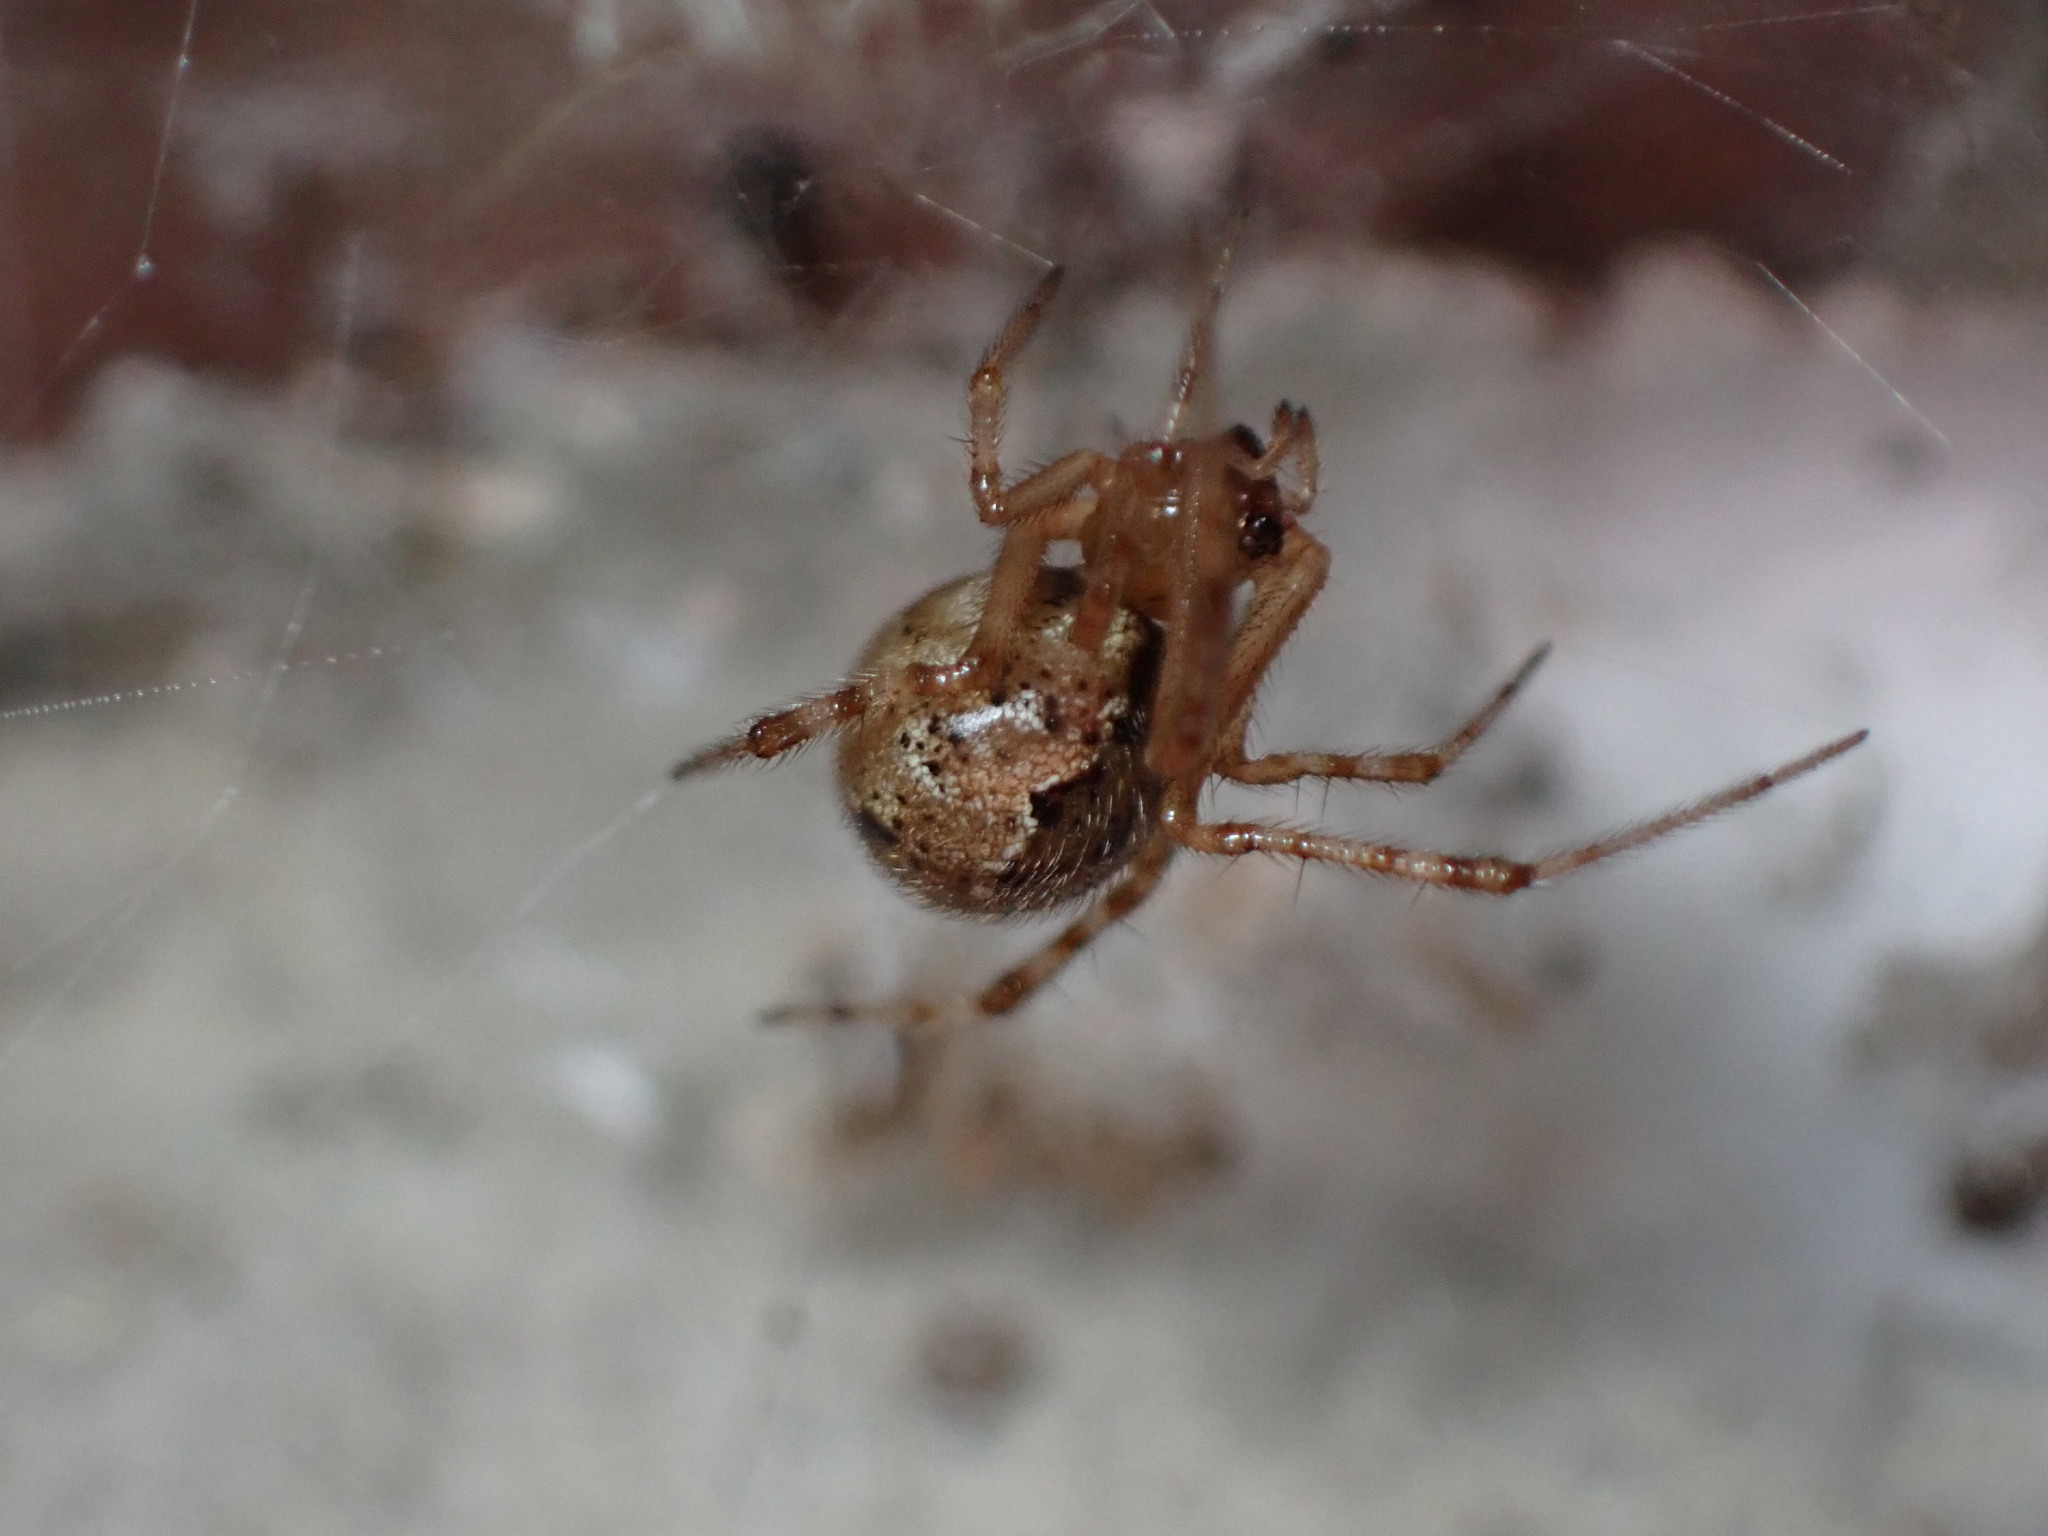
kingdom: Animalia
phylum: Arthropoda
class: Arachnida
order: Araneae
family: Theridiidae
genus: Cryptachaea
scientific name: Cryptachaea veruculata
